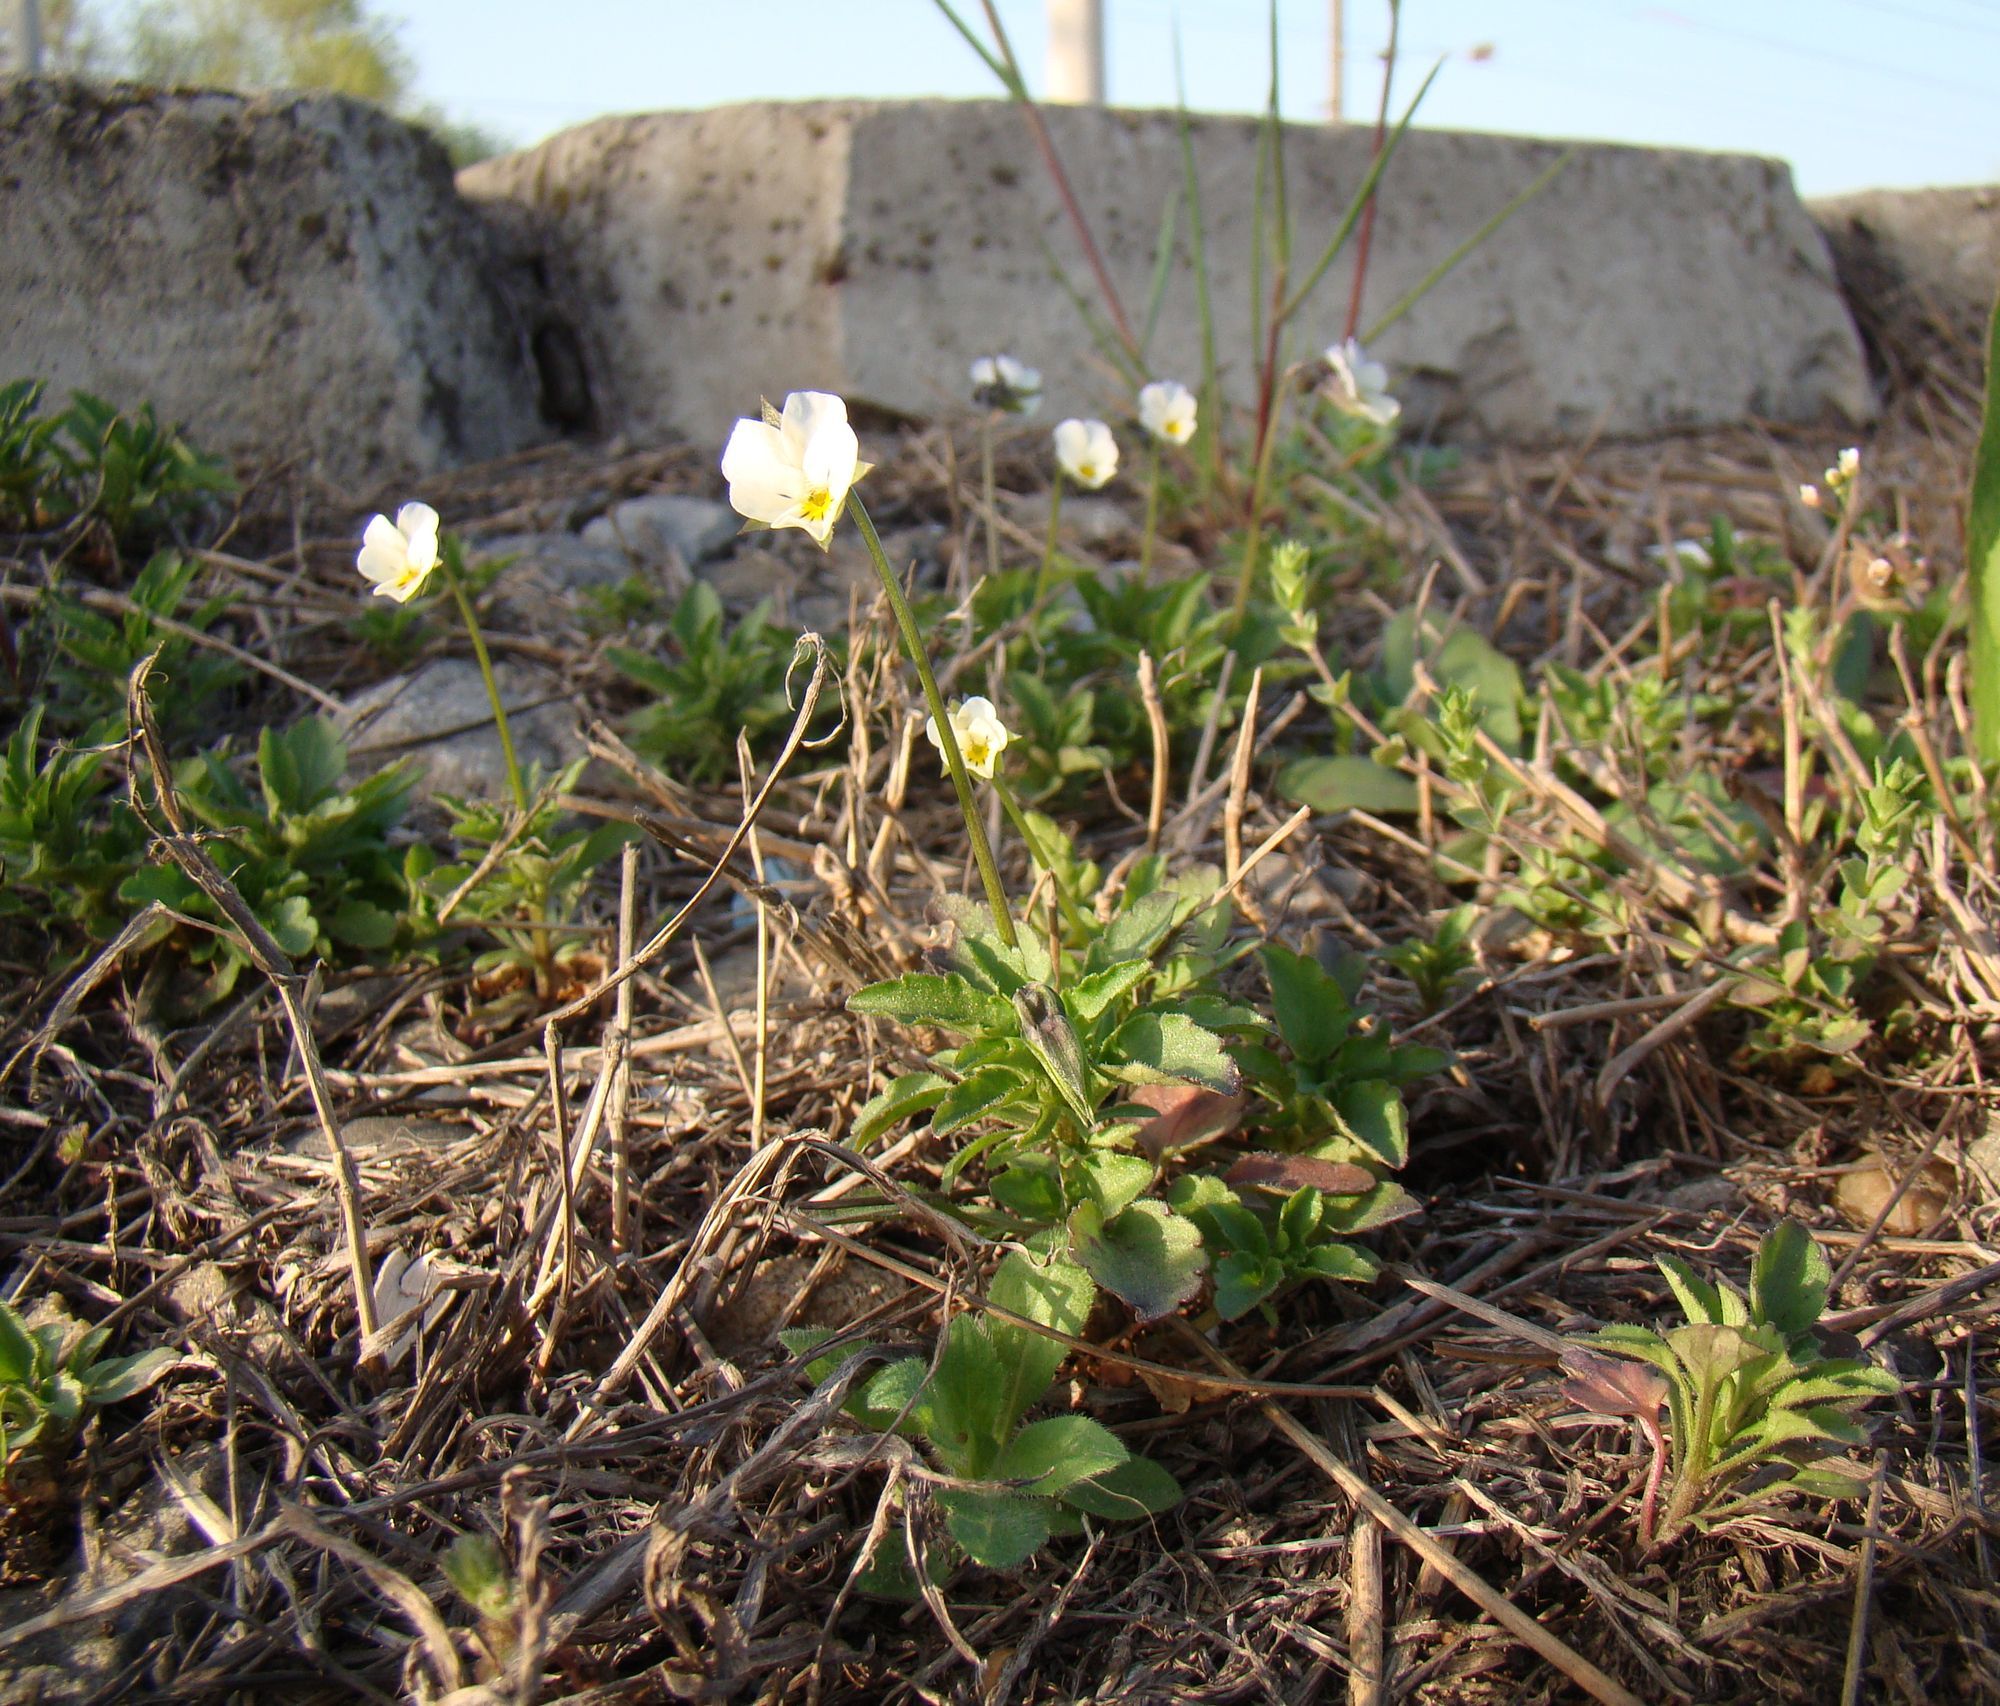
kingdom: Plantae
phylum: Tracheophyta
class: Magnoliopsida
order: Malpighiales
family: Violaceae
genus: Viola
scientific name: Viola arvensis
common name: Field pansy
